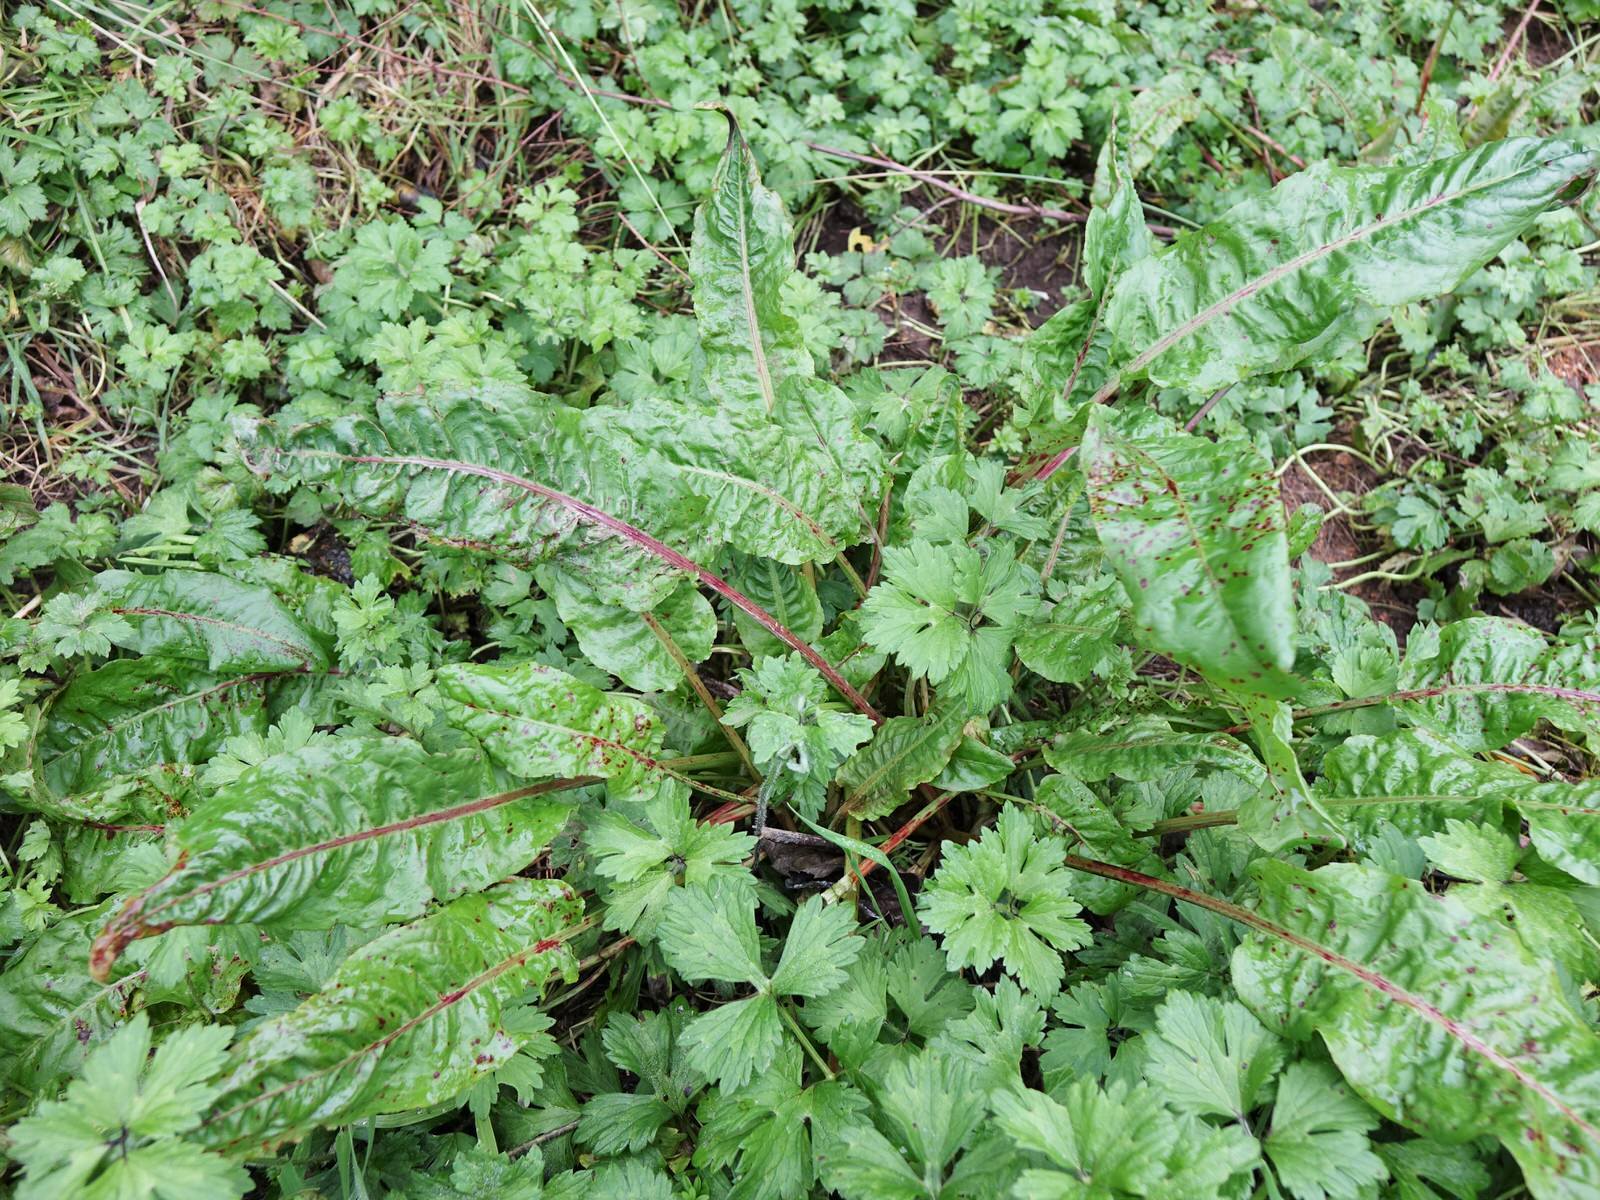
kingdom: Plantae
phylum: Tracheophyta
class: Magnoliopsida
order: Caryophyllales
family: Polygonaceae
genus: Rumex
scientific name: Rumex obtusifolius
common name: Bitter dock
